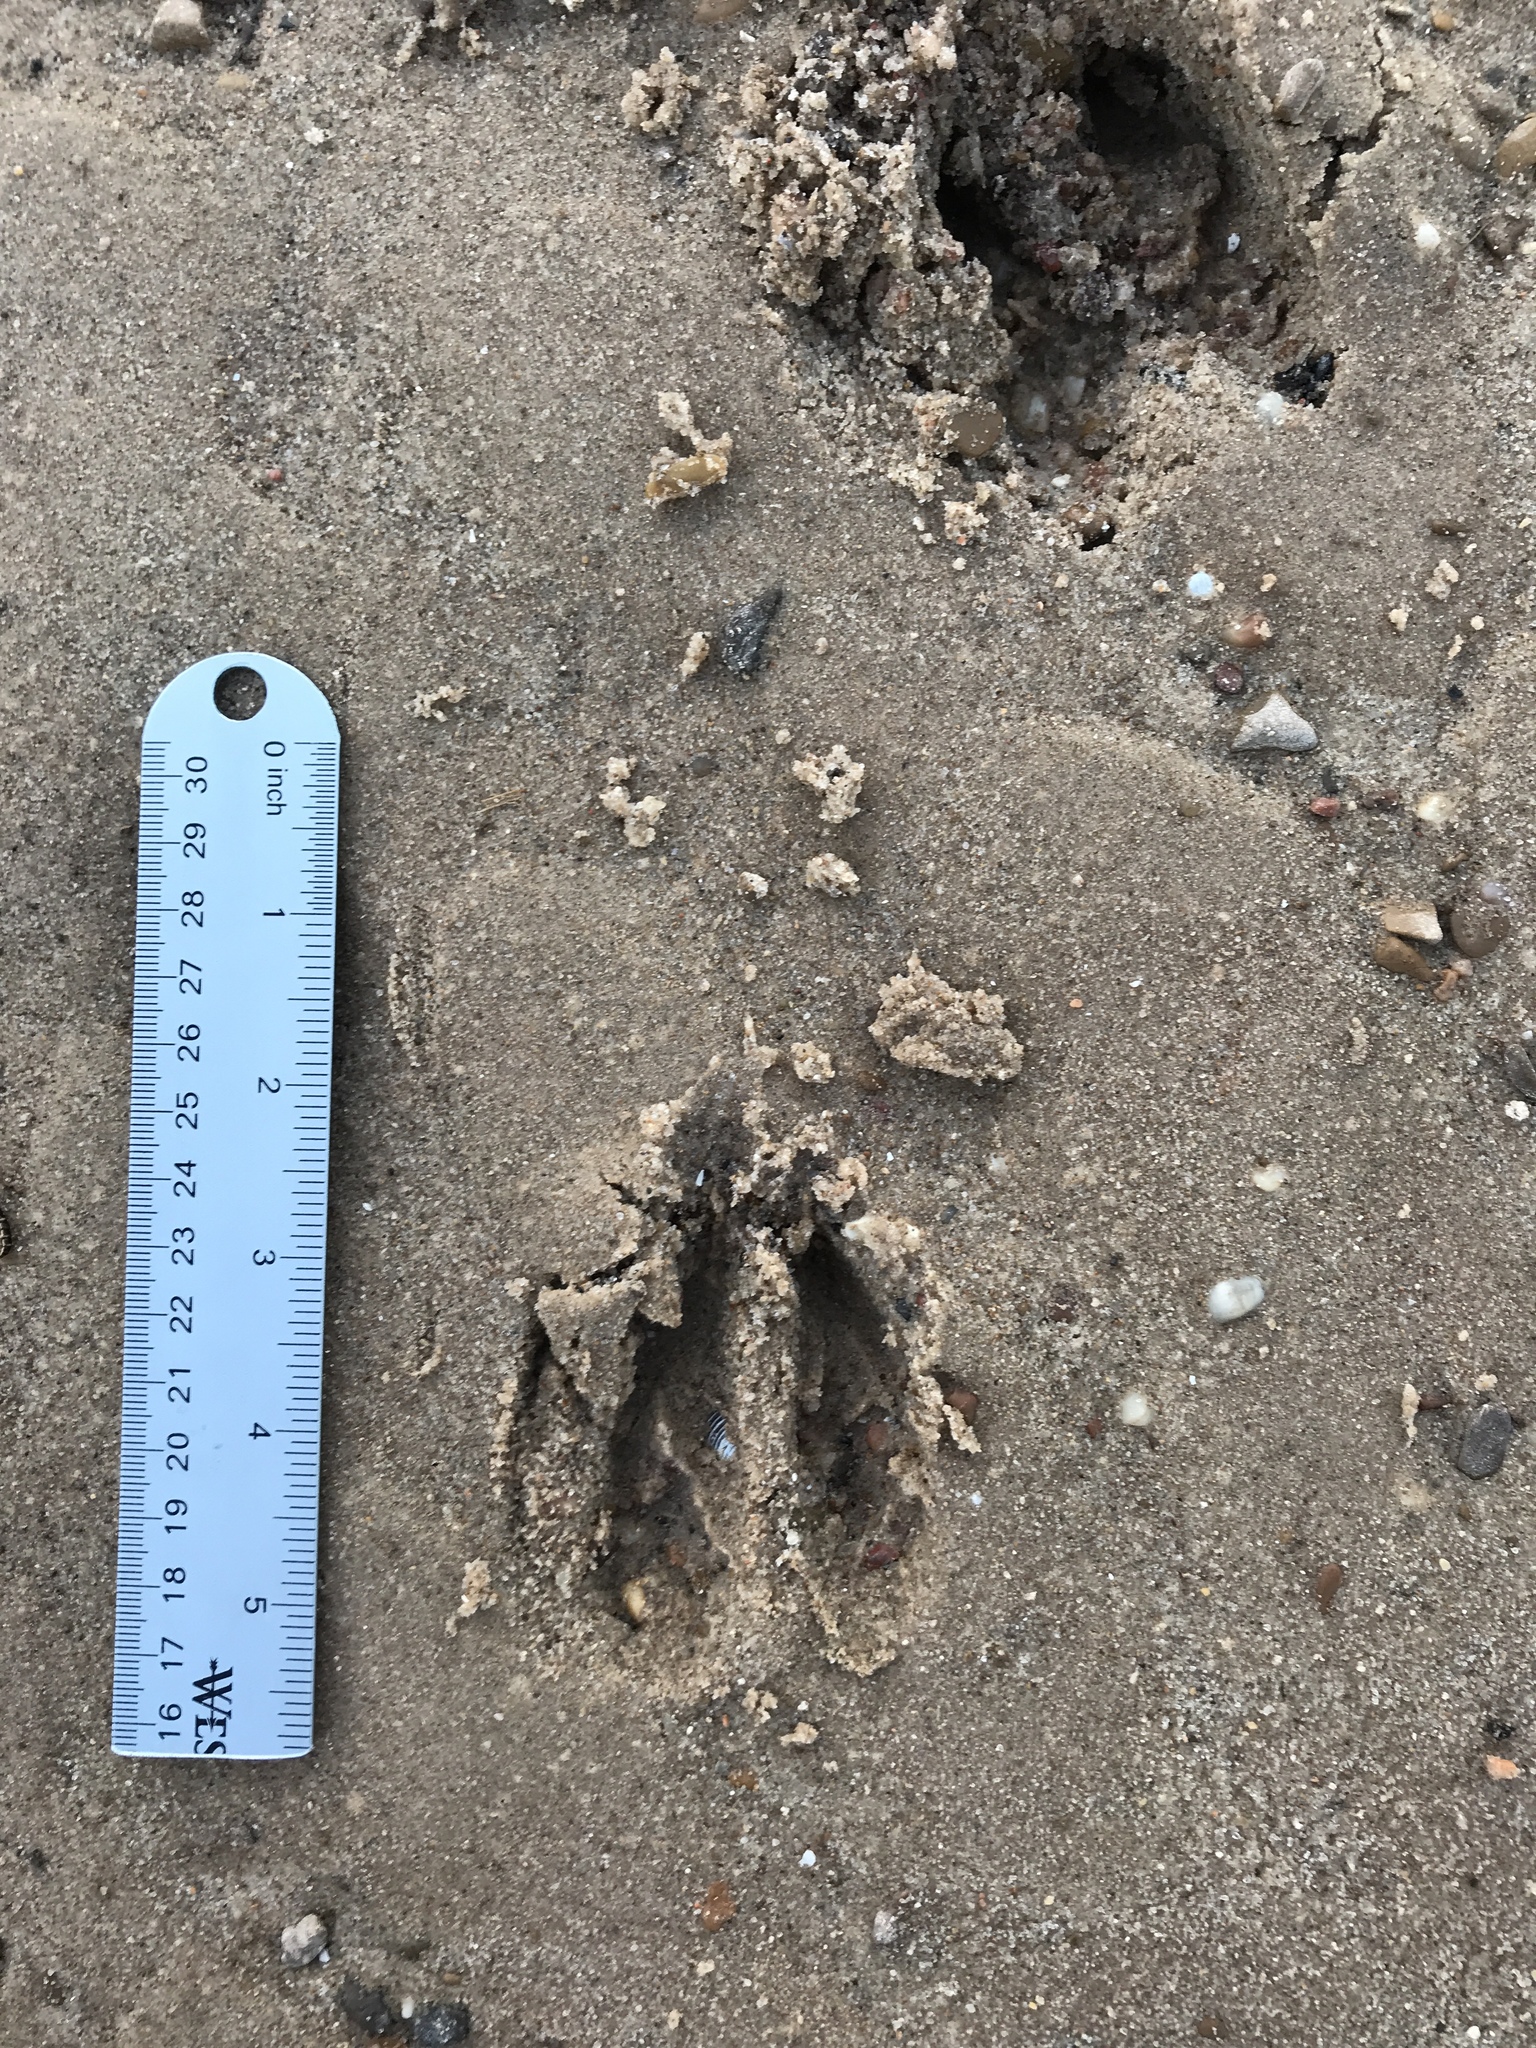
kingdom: Animalia
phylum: Chordata
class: Mammalia
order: Artiodactyla
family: Cervidae
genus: Odocoileus
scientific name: Odocoileus virginianus
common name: White-tailed deer
